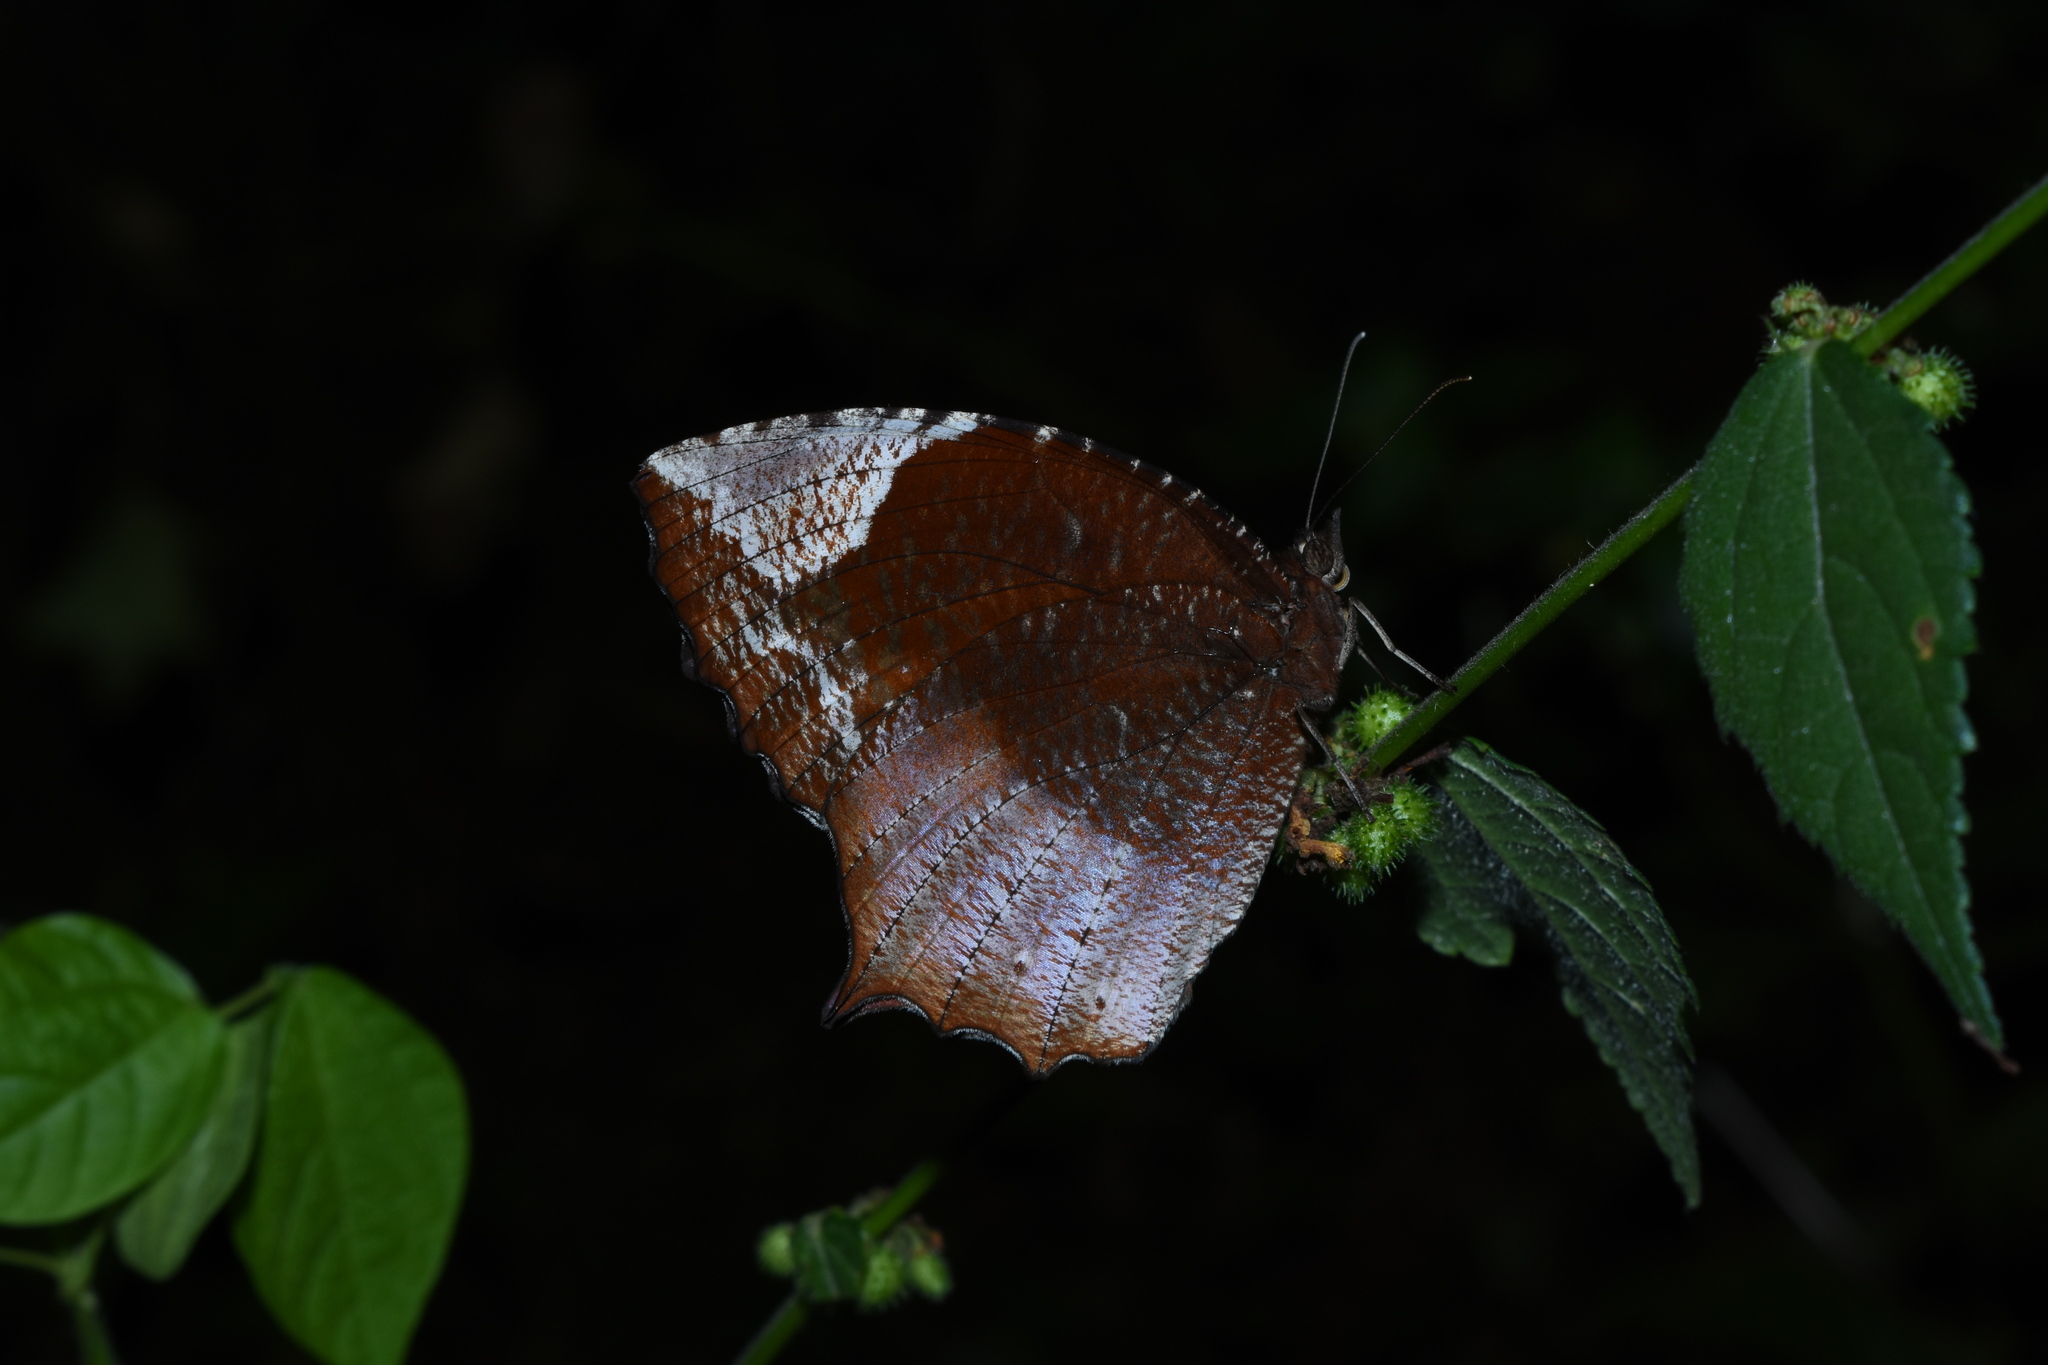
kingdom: Animalia
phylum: Arthropoda
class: Insecta
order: Lepidoptera
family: Nymphalidae
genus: Elymnias
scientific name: Elymnias caudata
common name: Tailed palmfly
